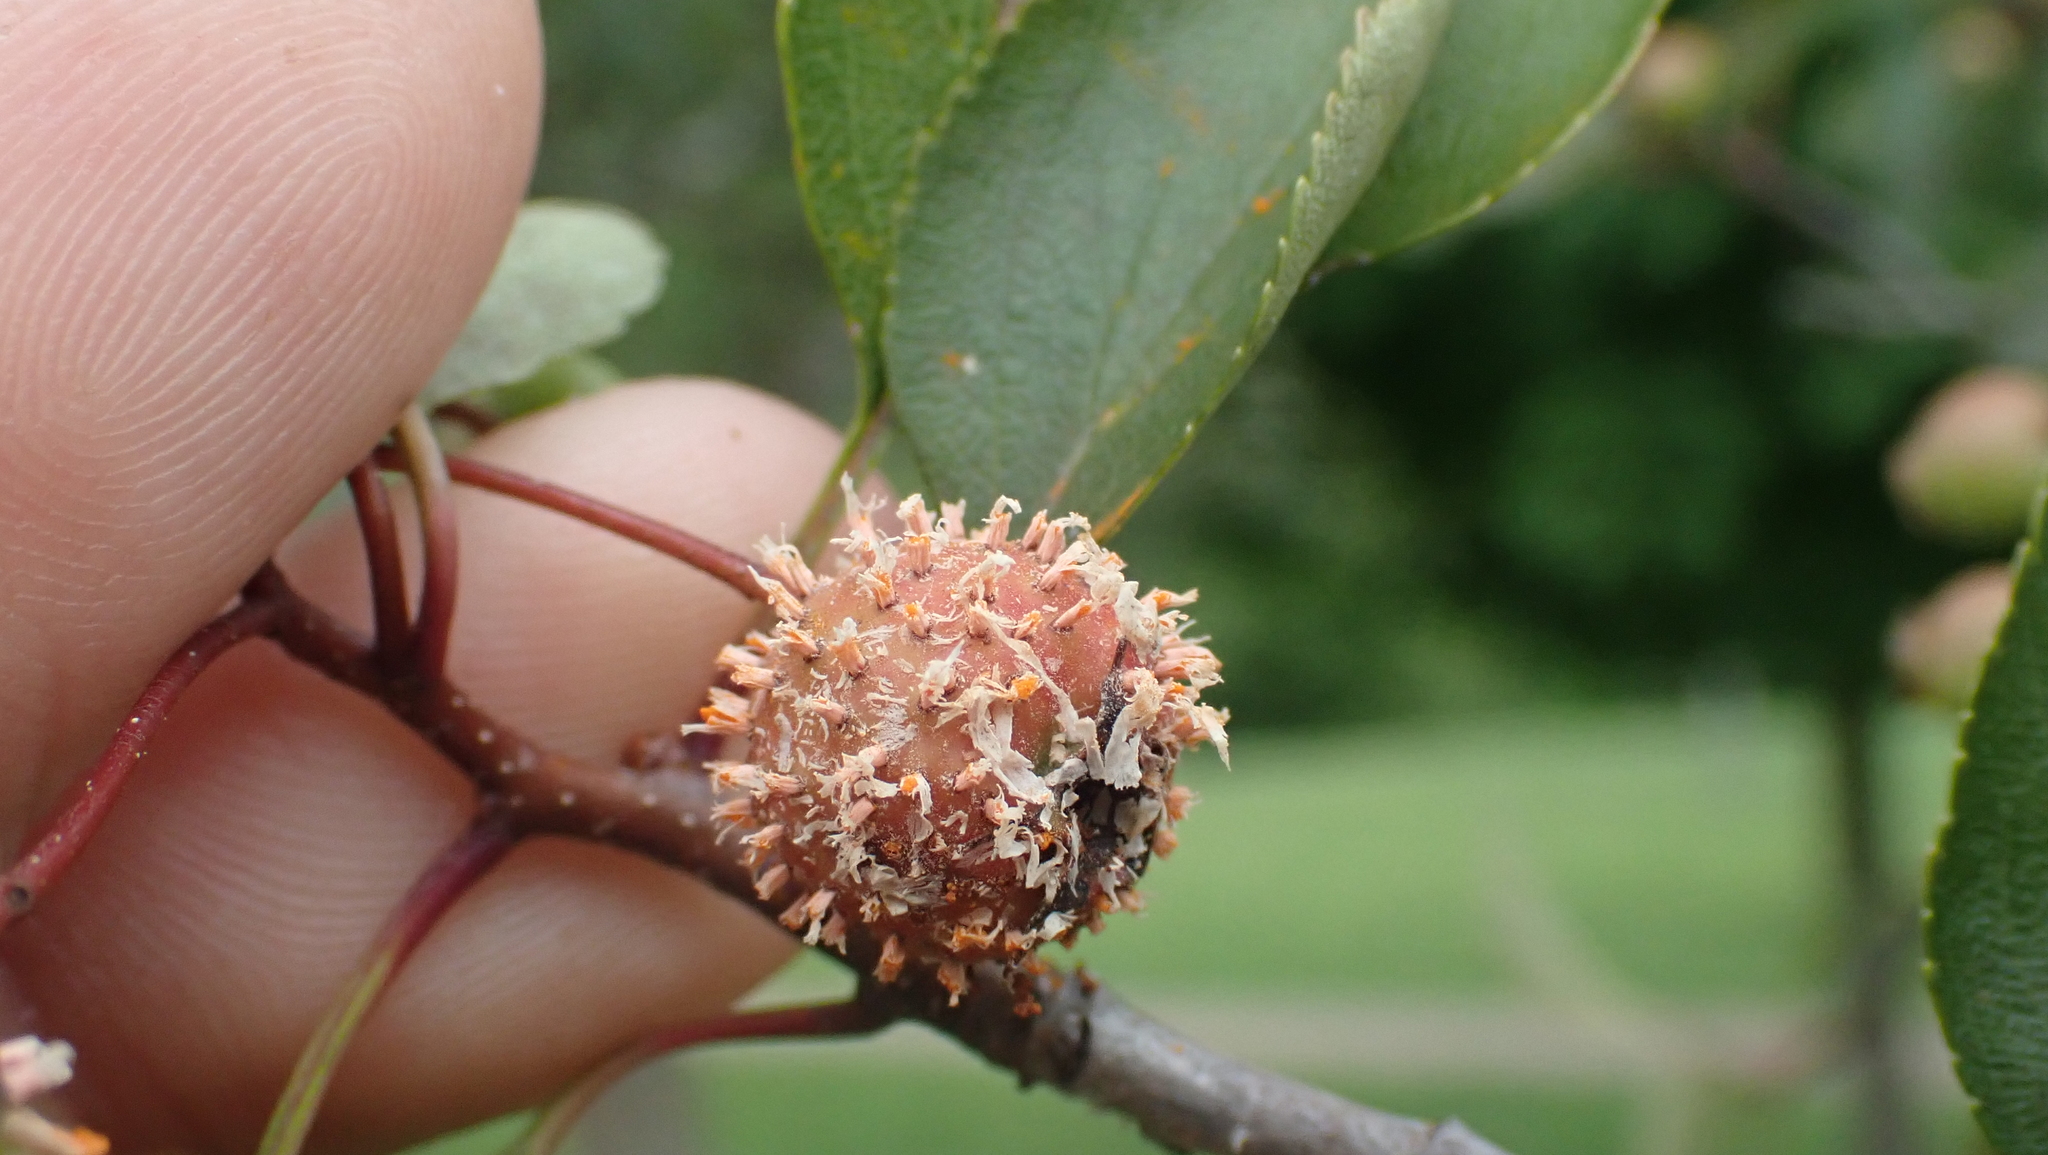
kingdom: Fungi
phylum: Basidiomycota
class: Pucciniomycetes
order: Pucciniales
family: Gymnosporangiaceae
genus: Gymnosporangium
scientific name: Gymnosporangium clavipes
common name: Quince rust
